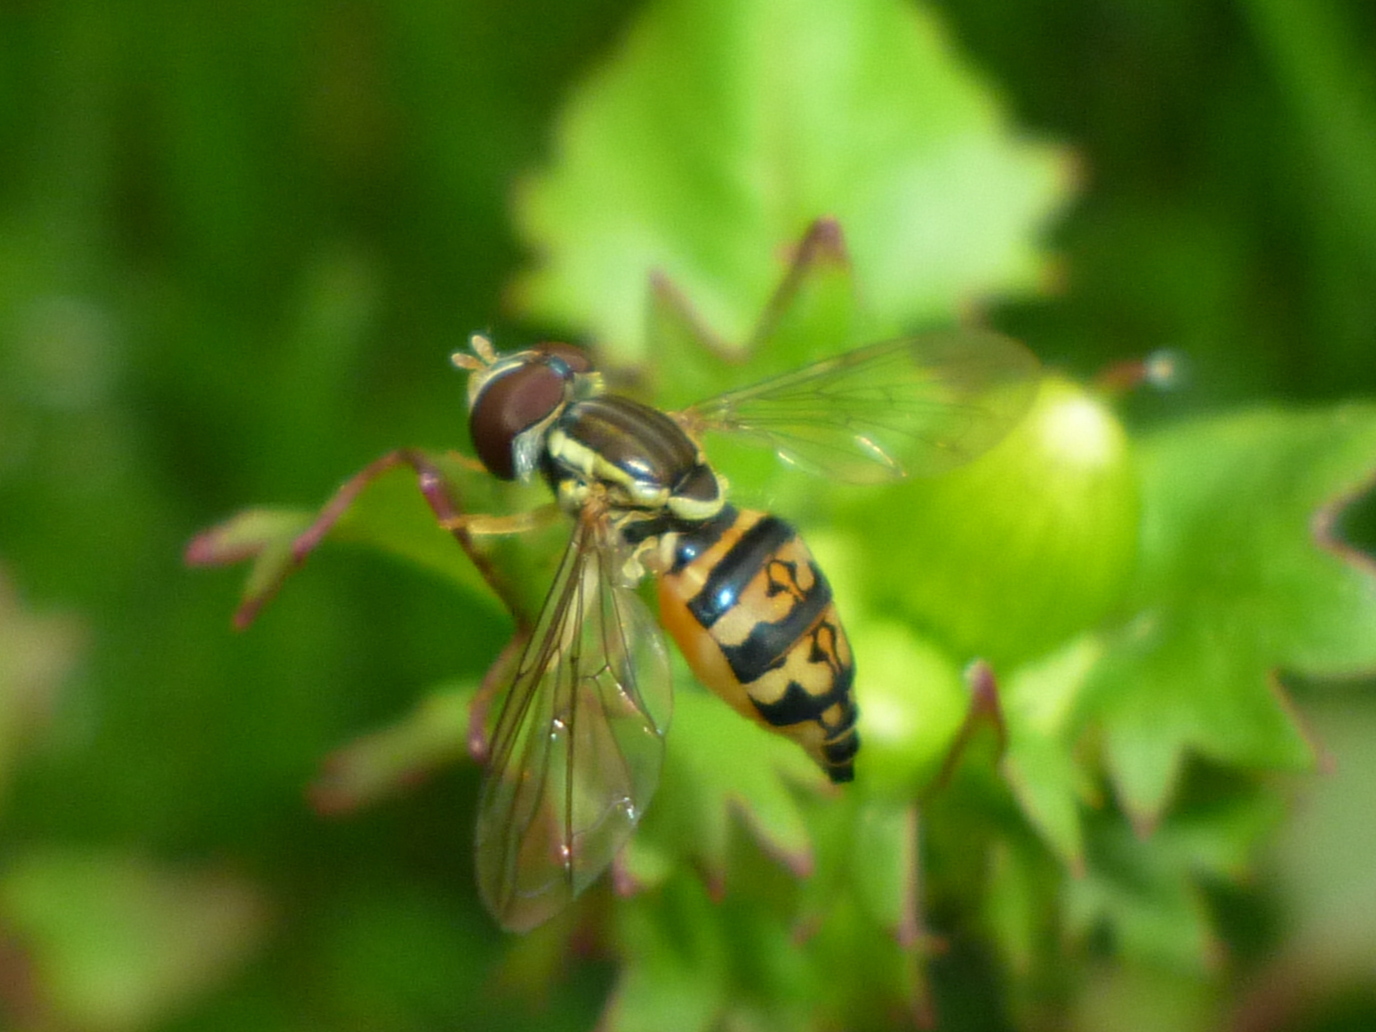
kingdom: Animalia
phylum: Arthropoda
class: Insecta
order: Diptera
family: Syrphidae
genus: Toxomerus
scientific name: Toxomerus geminatus
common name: Eastern calligrapher
